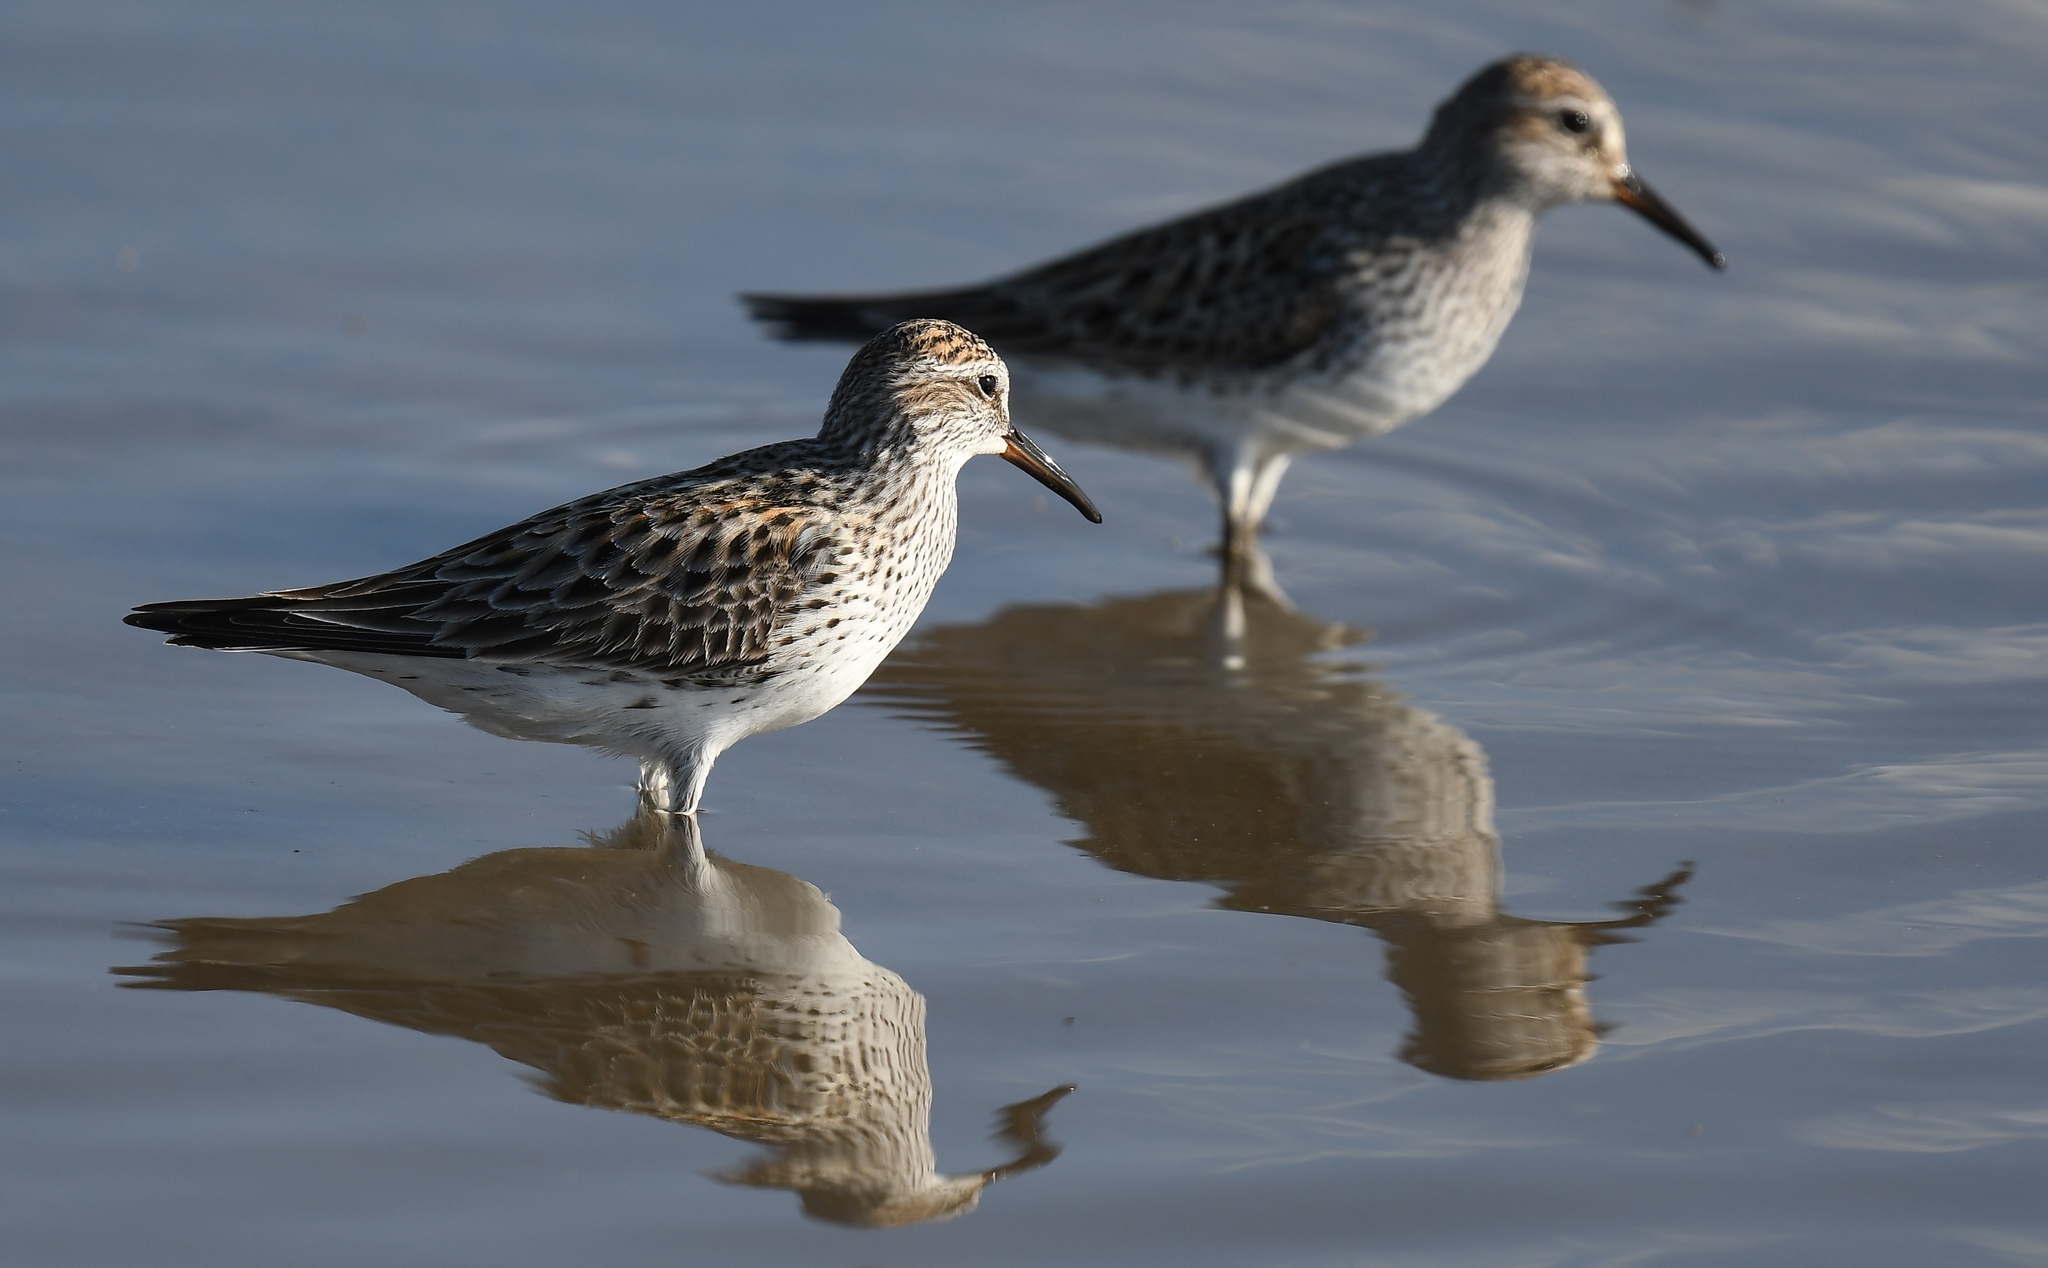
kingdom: Animalia
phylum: Chordata
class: Aves
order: Charadriiformes
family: Scolopacidae
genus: Calidris
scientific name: Calidris fuscicollis
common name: White-rumped sandpiper
